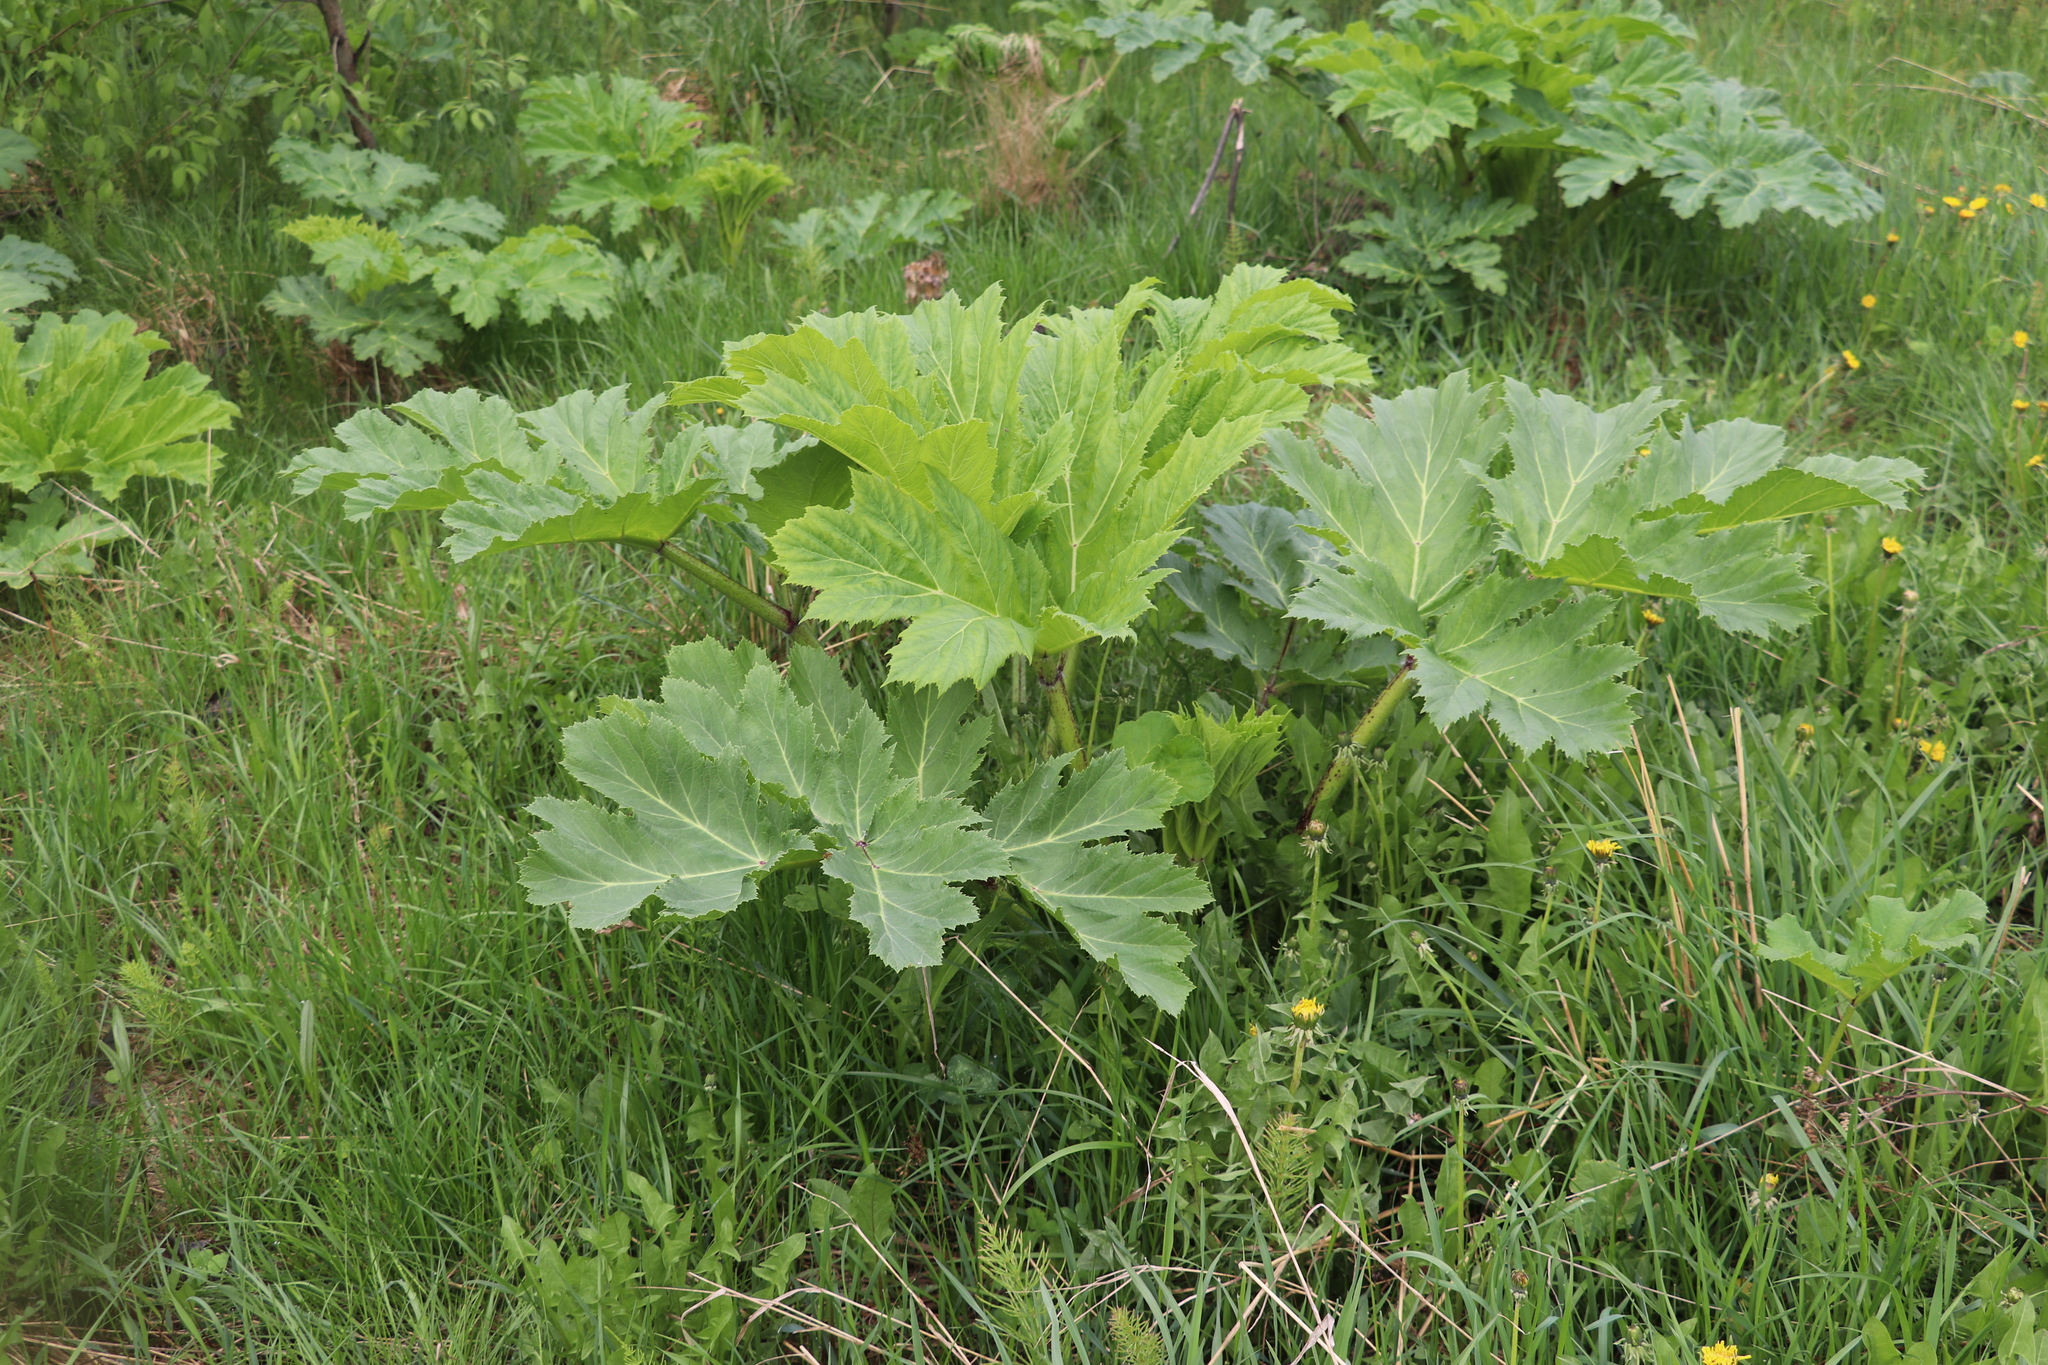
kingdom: Plantae
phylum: Tracheophyta
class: Magnoliopsida
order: Apiales
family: Apiaceae
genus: Heracleum
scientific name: Heracleum sosnowskyi
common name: Sosnowsky's hogweed
